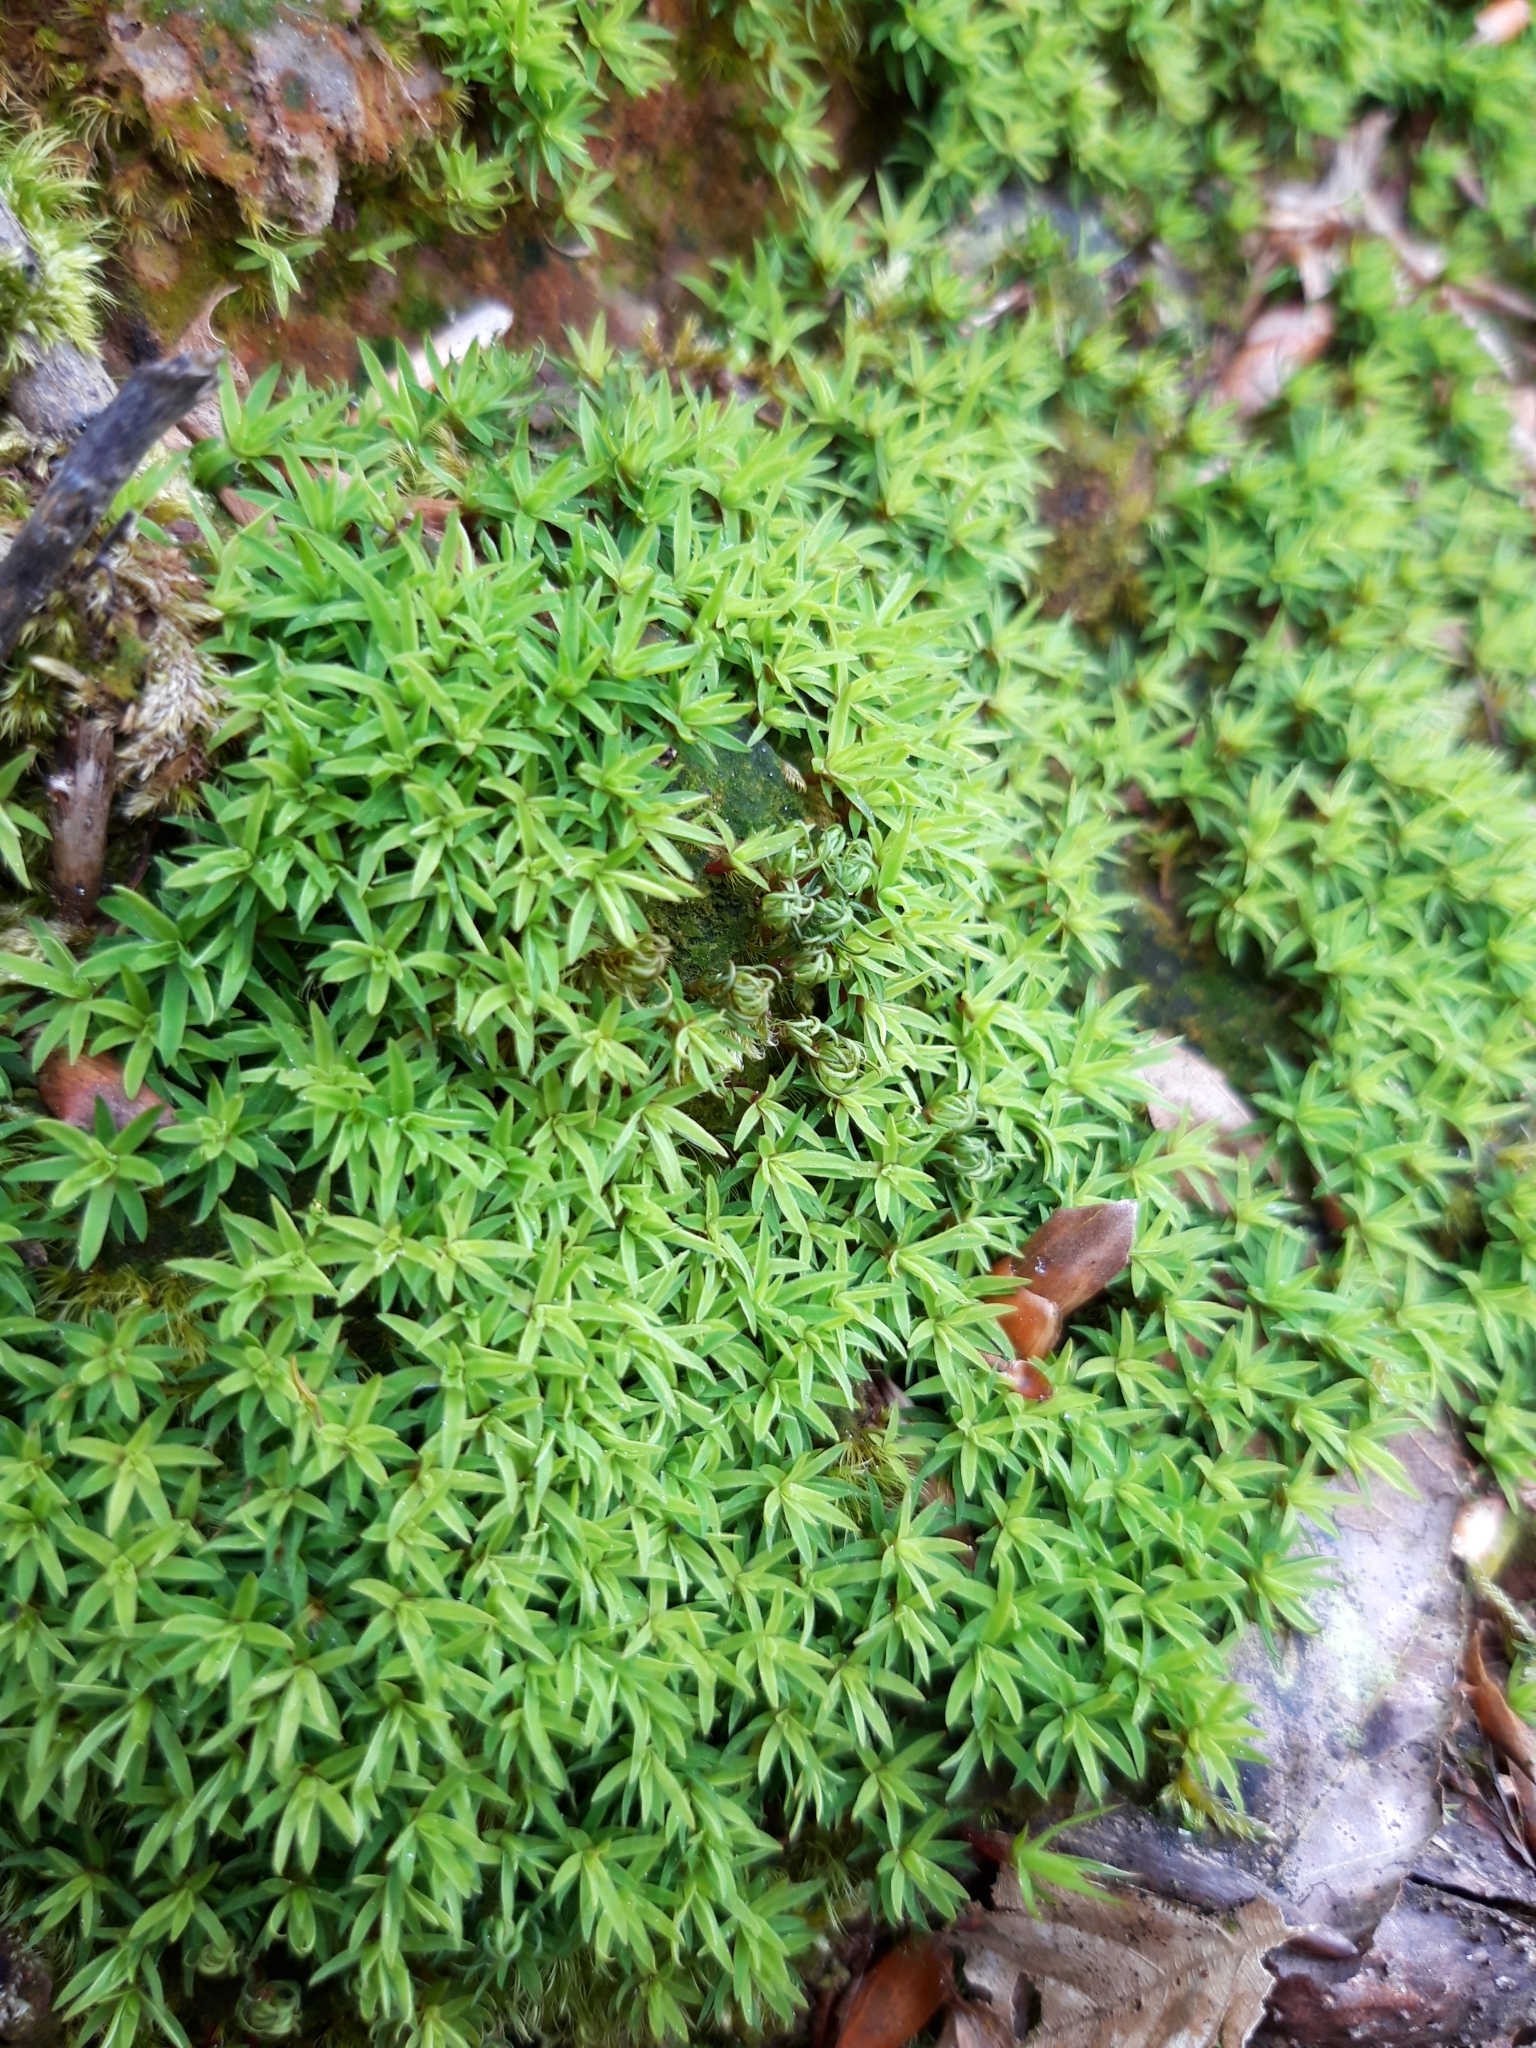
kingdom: Plantae
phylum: Bryophyta
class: Polytrichopsida
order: Polytrichales
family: Polytrichaceae
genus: Pogonatum
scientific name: Pogonatum aloides
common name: Aloe haircap
